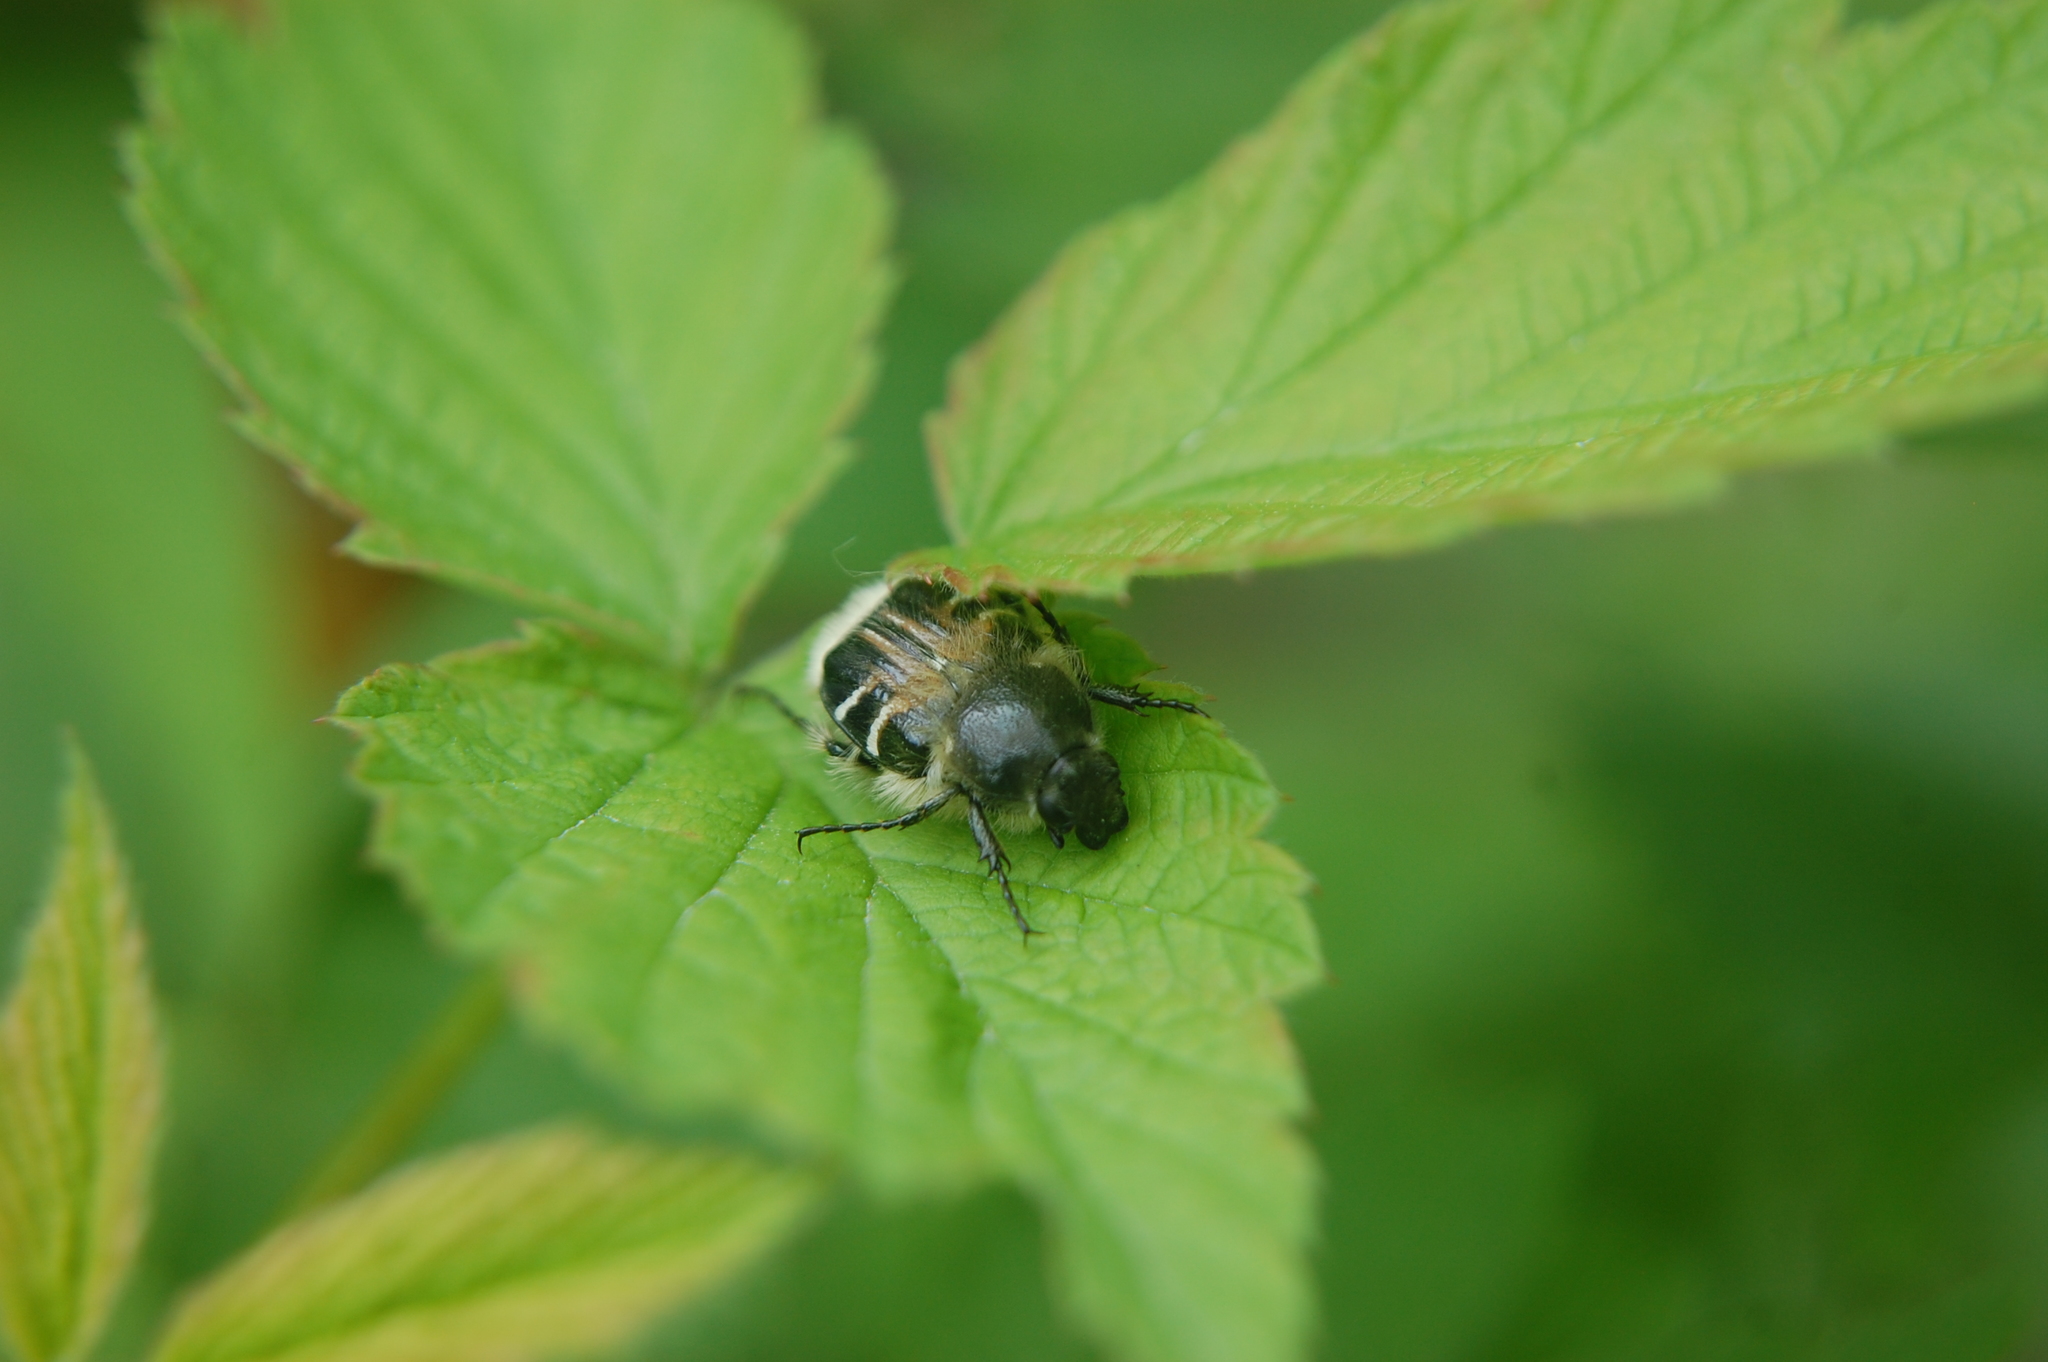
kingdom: Animalia
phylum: Arthropoda
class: Insecta
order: Coleoptera
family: Scarabaeidae
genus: Trichiotinus
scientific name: Trichiotinus assimilis
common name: Bee-mimic beetle
